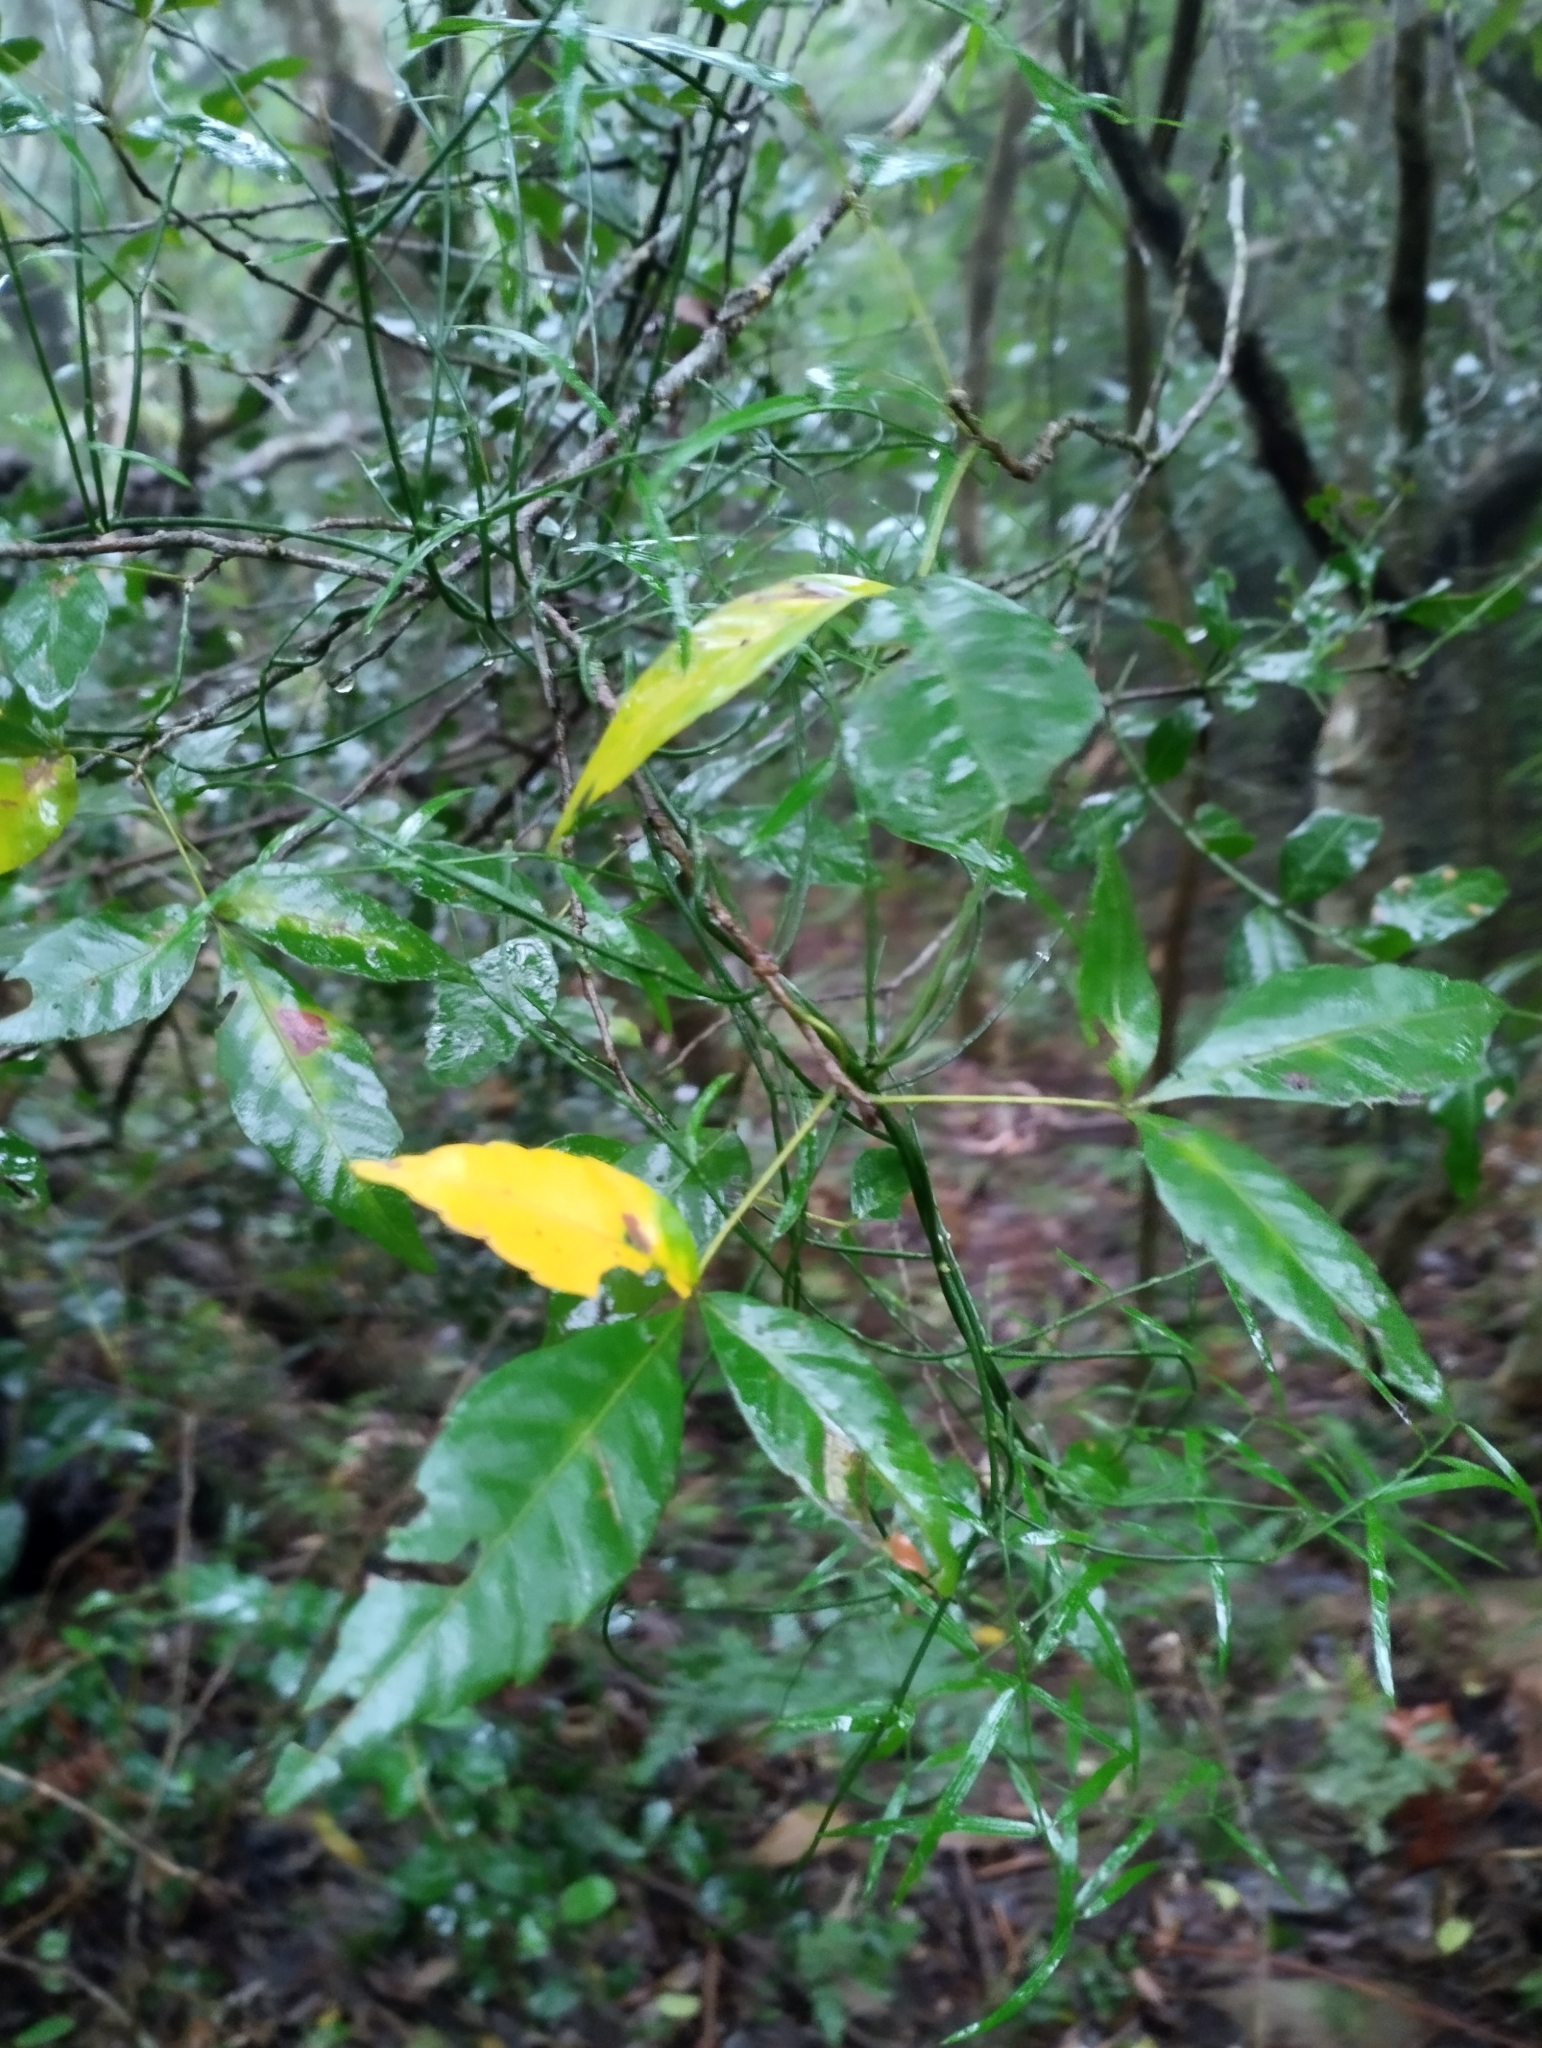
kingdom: Plantae
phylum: Tracheophyta
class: Magnoliopsida
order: Sapindales
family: Sapindaceae
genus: Allophylus
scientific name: Allophylus edulis
